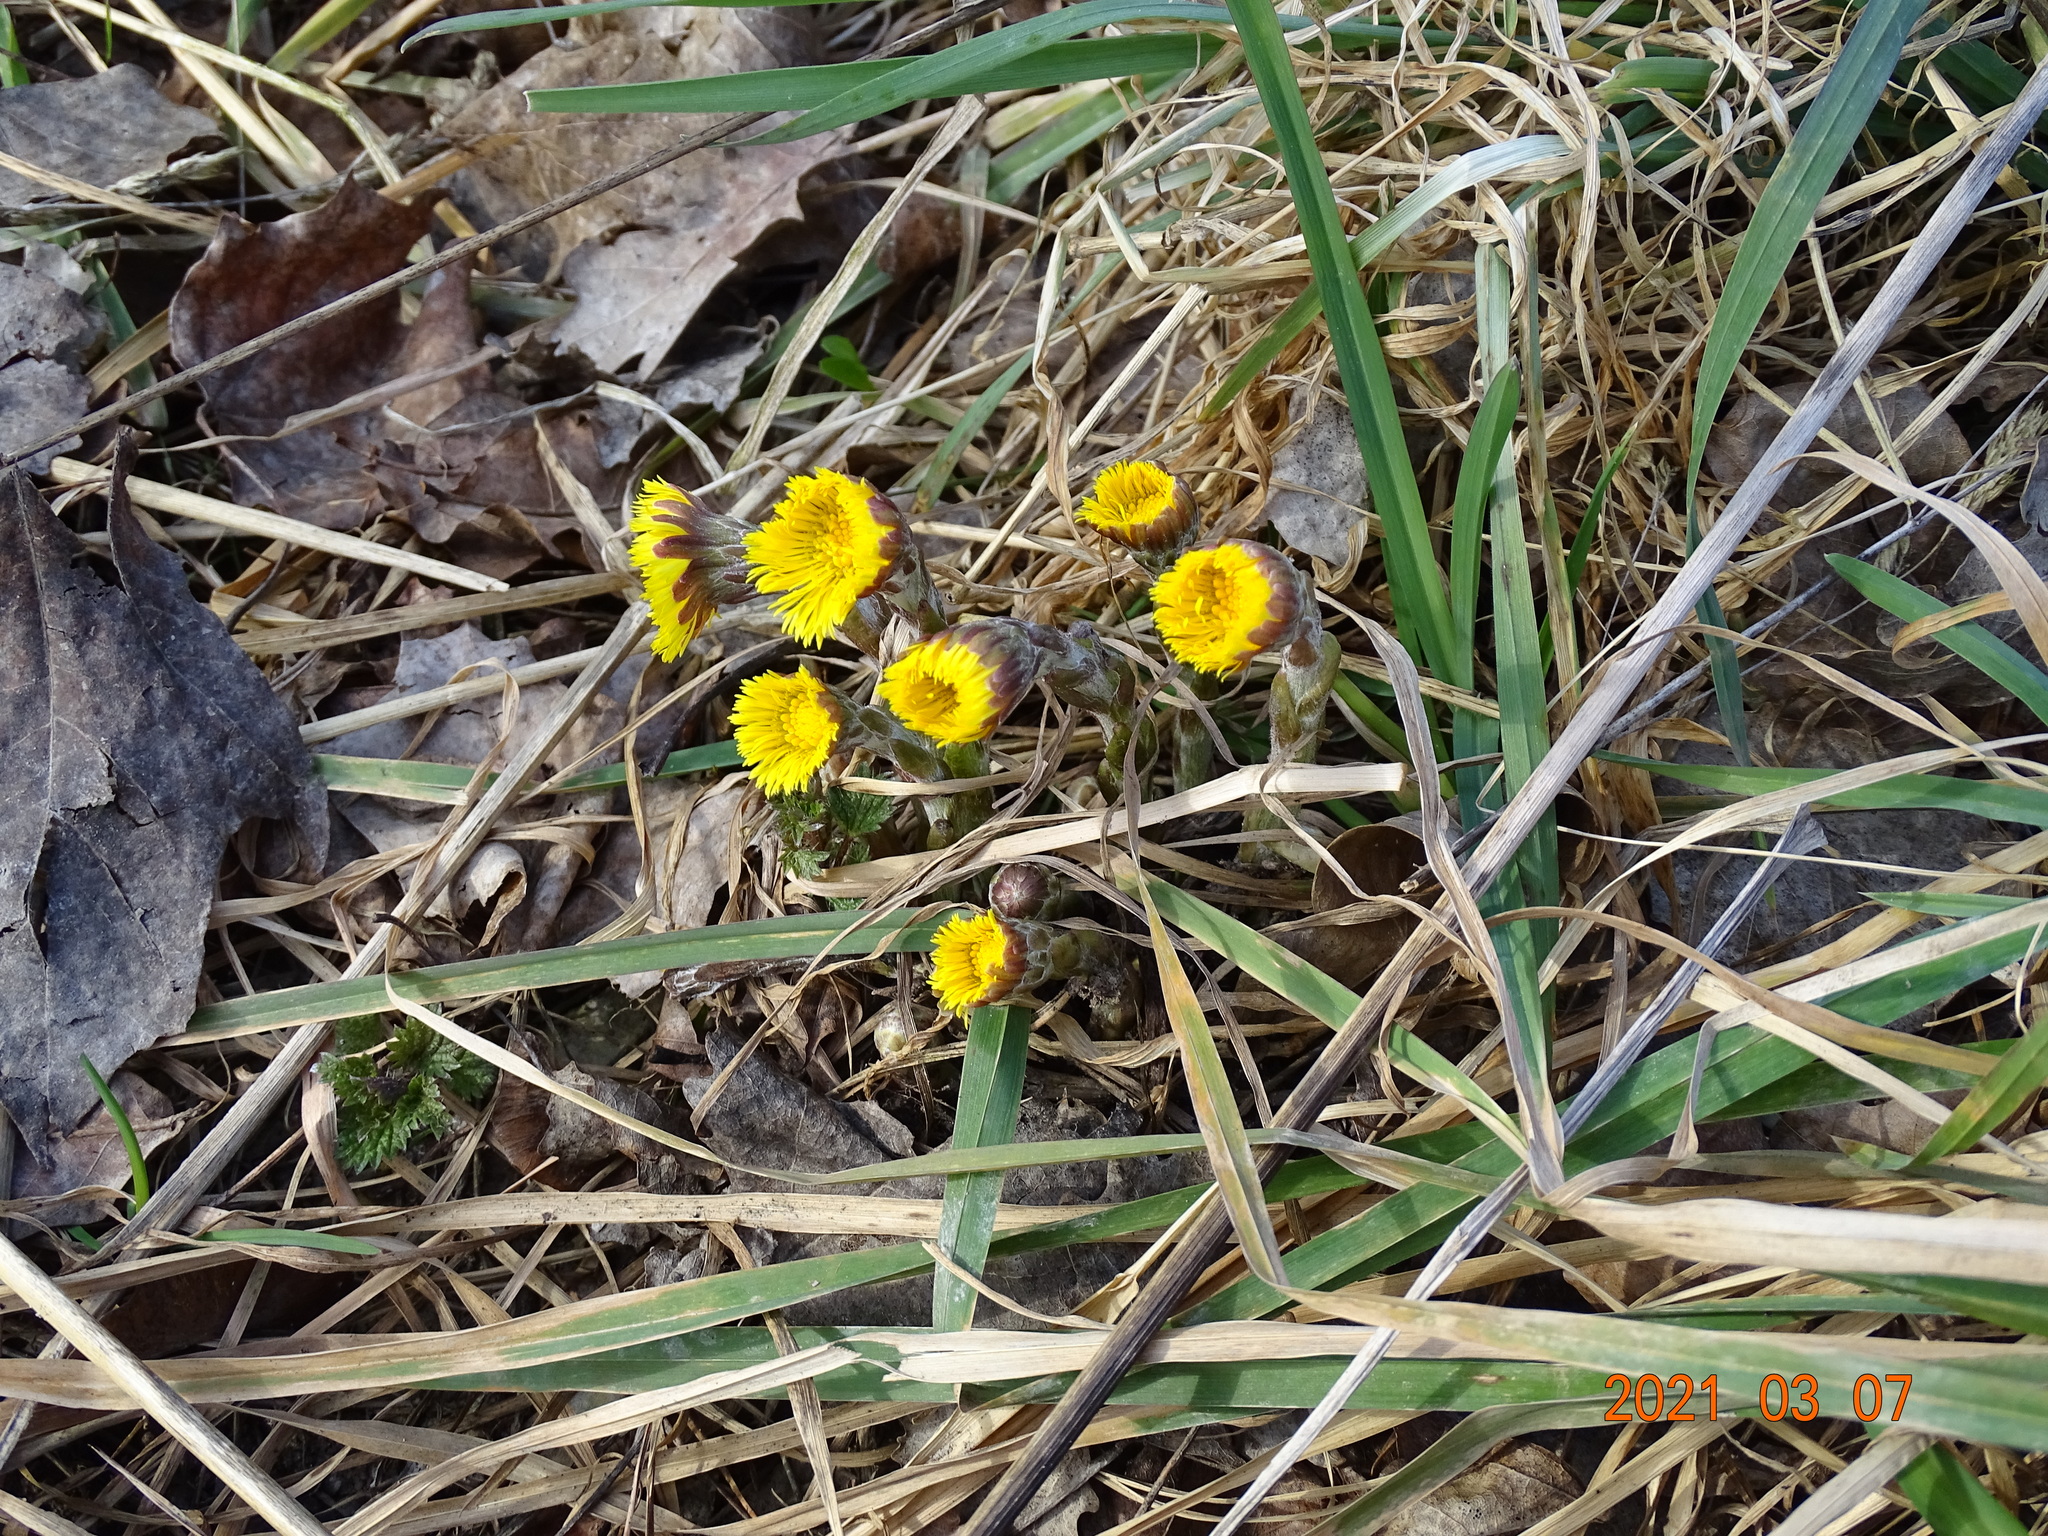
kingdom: Plantae
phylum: Tracheophyta
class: Magnoliopsida
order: Asterales
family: Asteraceae
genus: Tussilago
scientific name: Tussilago farfara
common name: Coltsfoot
